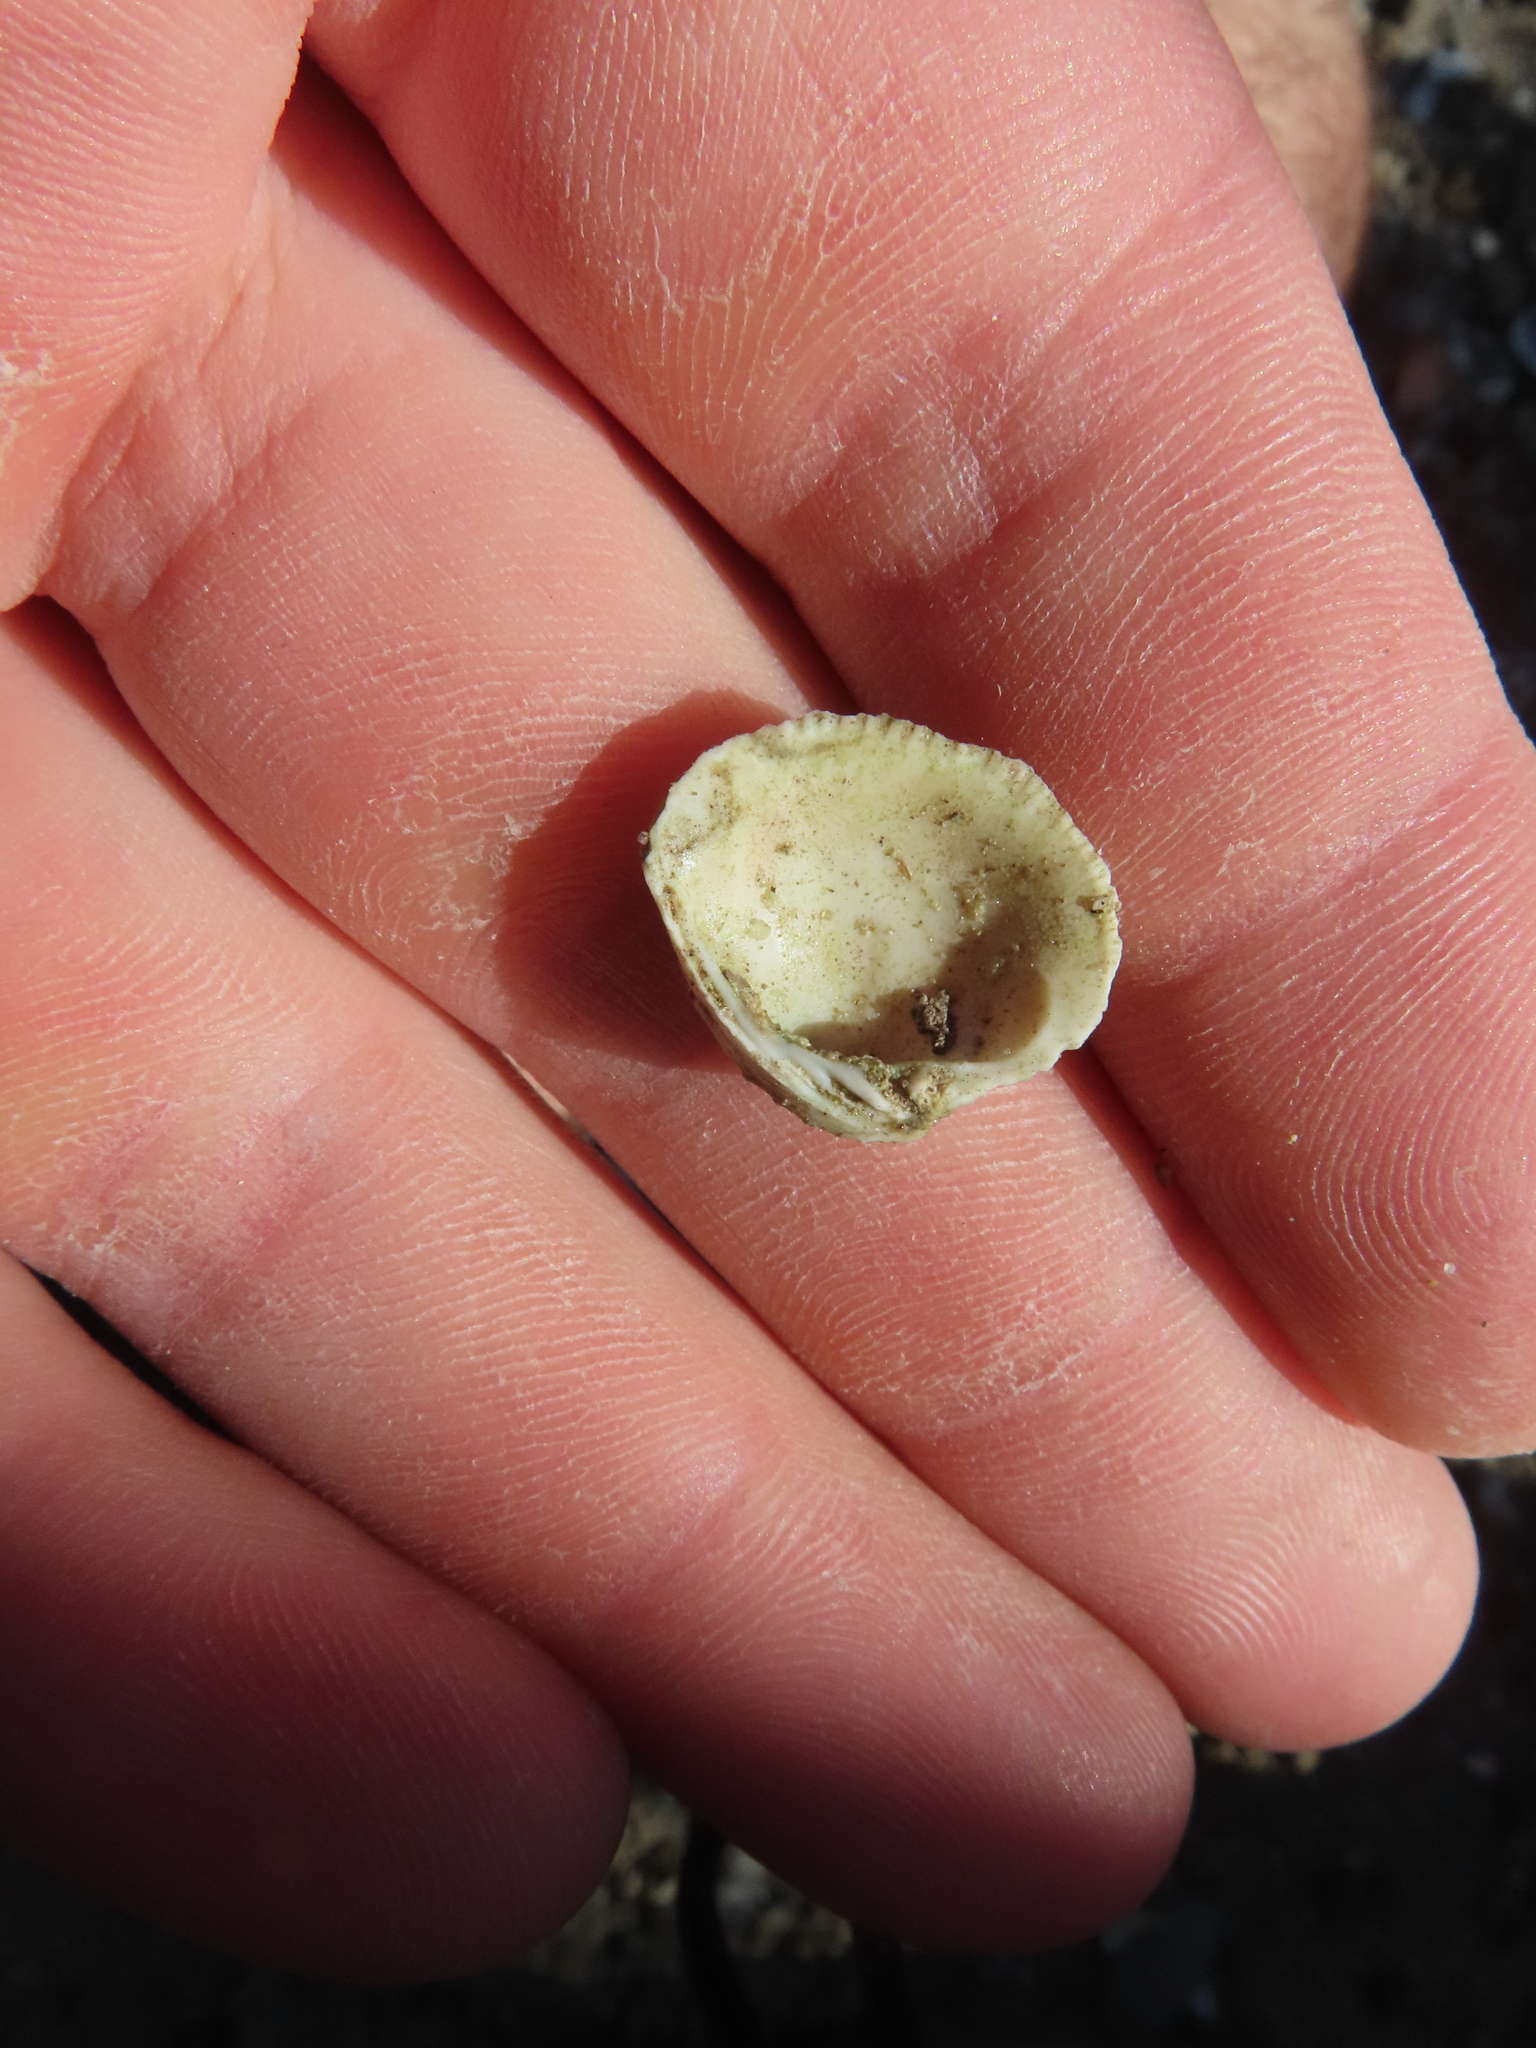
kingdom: Animalia
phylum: Mollusca
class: Bivalvia
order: Venerida
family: Veneridae
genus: Chione
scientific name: Chione elevata
